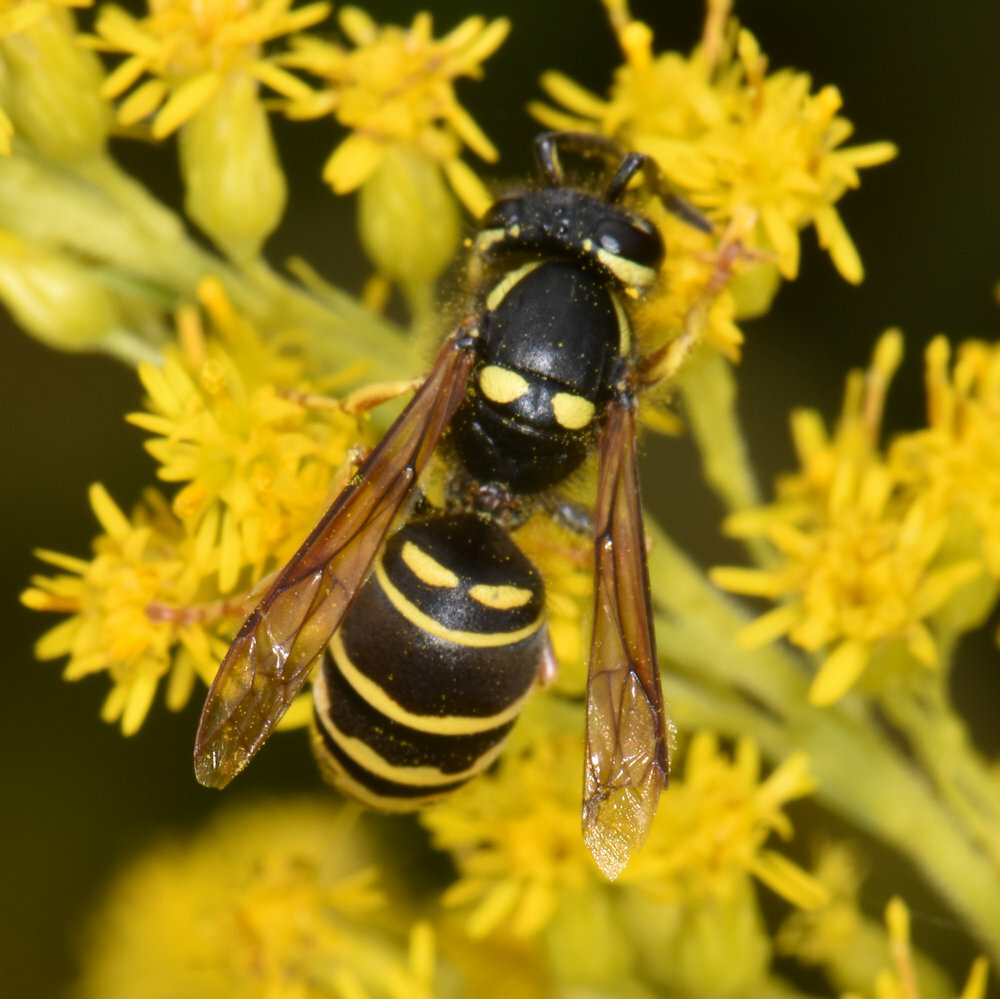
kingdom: Animalia
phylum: Arthropoda
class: Insecta
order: Hymenoptera
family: Vespidae
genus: Vespula
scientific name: Vespula vidua
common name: Widow yellowjacket
